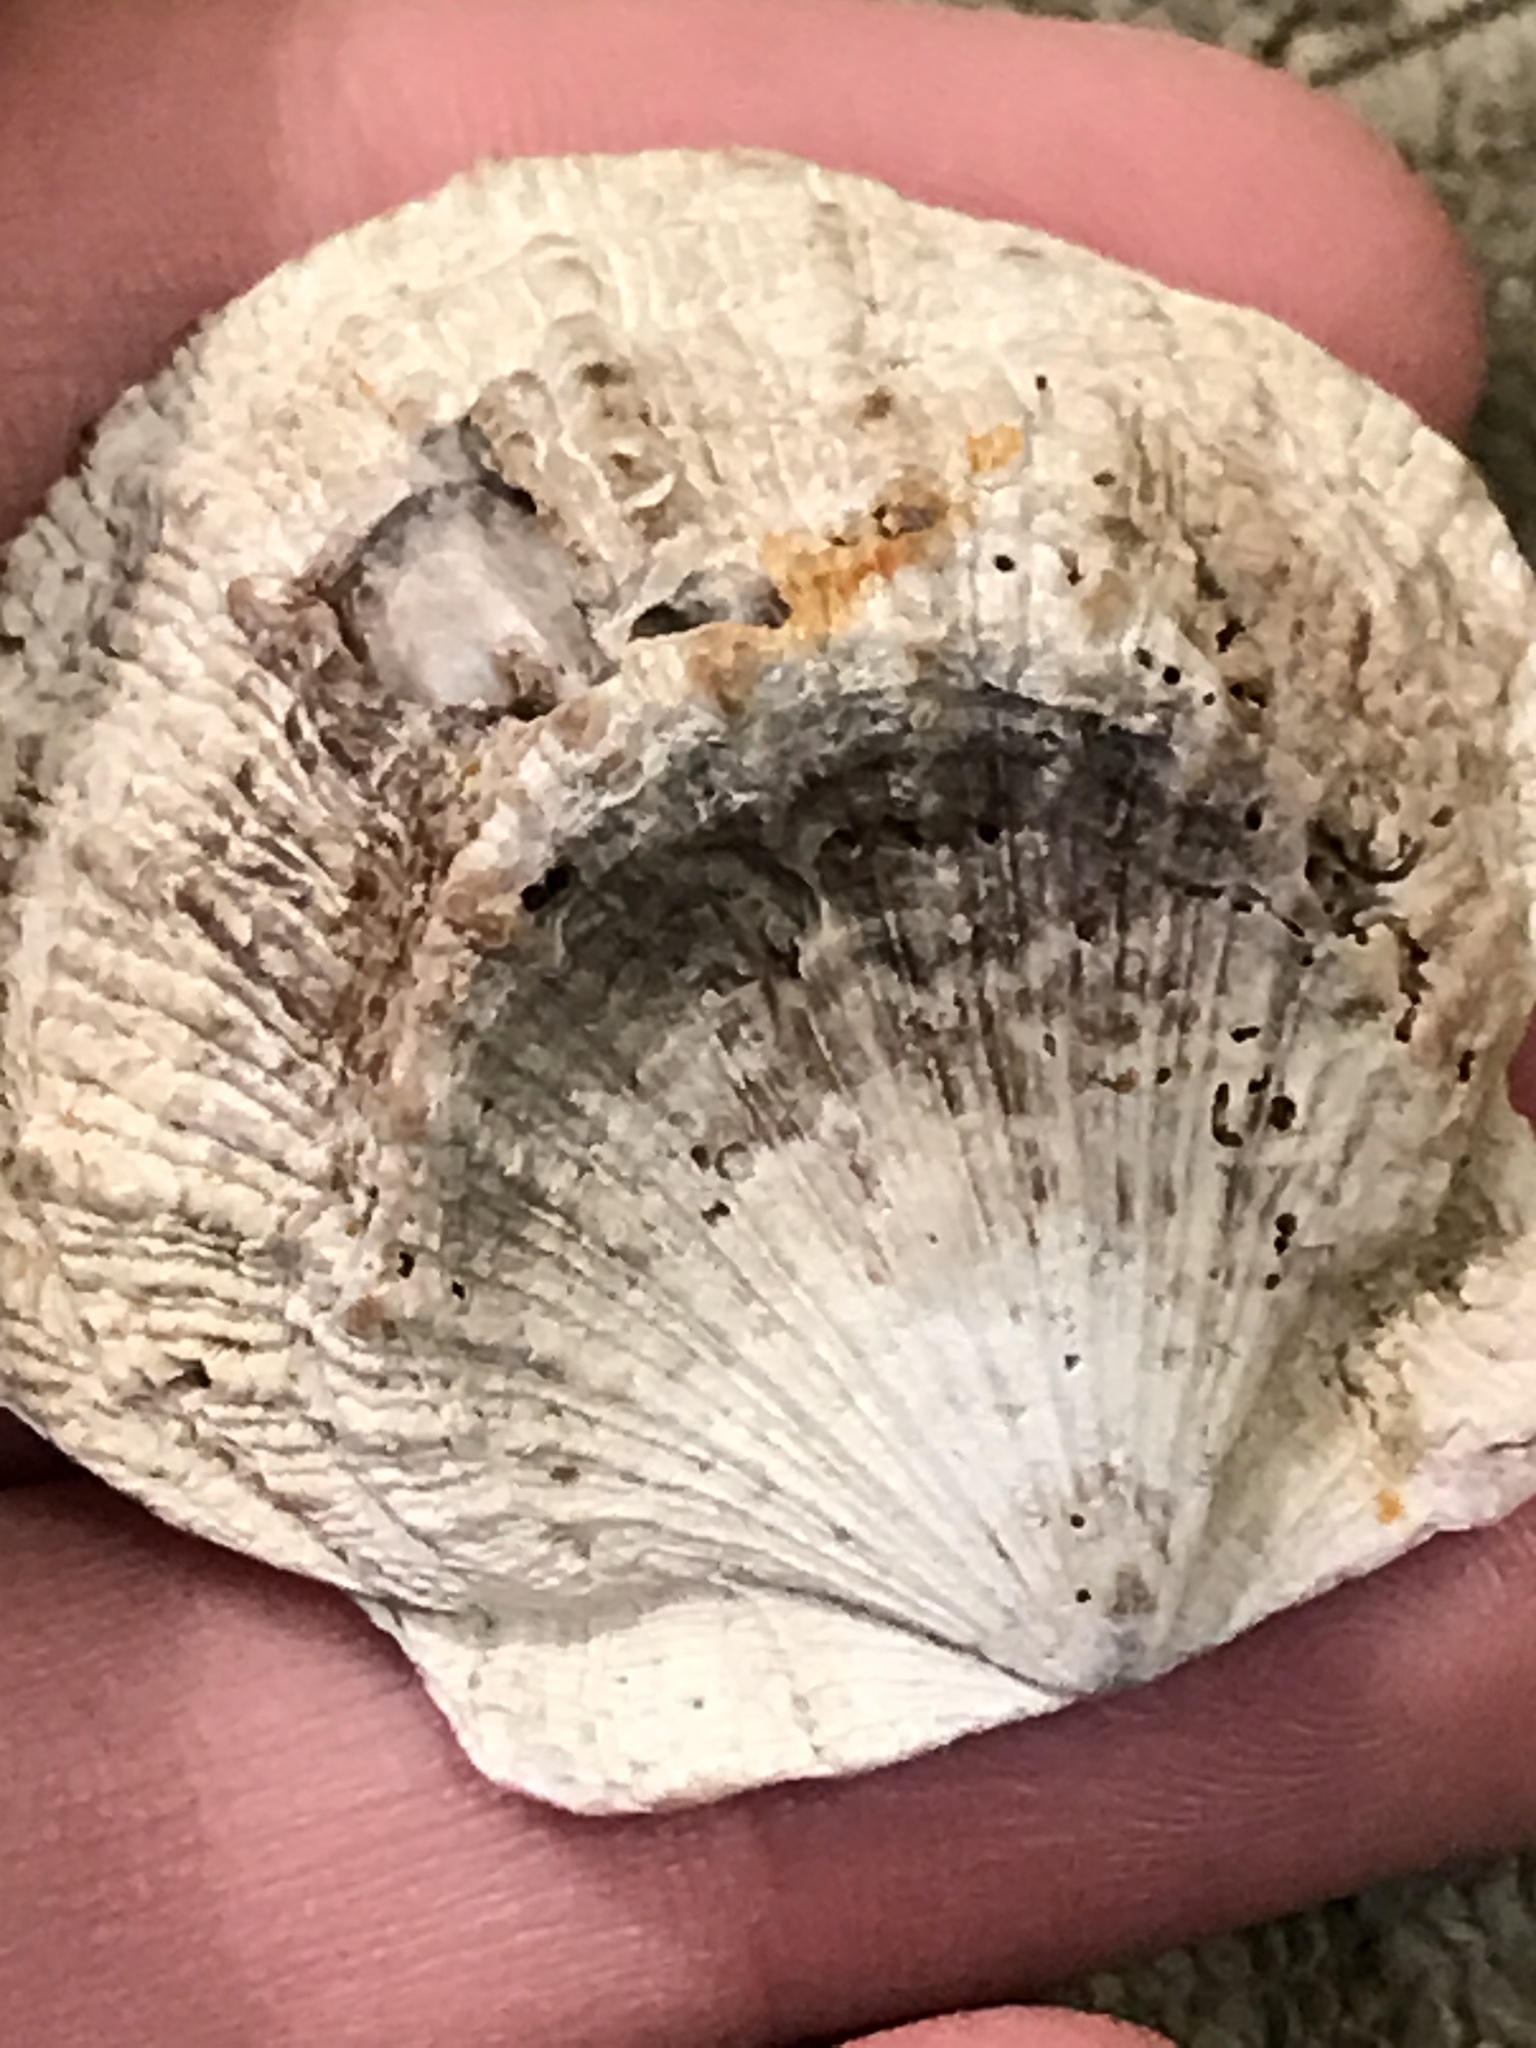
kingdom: Animalia
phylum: Mollusca
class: Bivalvia
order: Pectinida
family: Pectinidae
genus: Crassadoma
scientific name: Crassadoma gigantea
